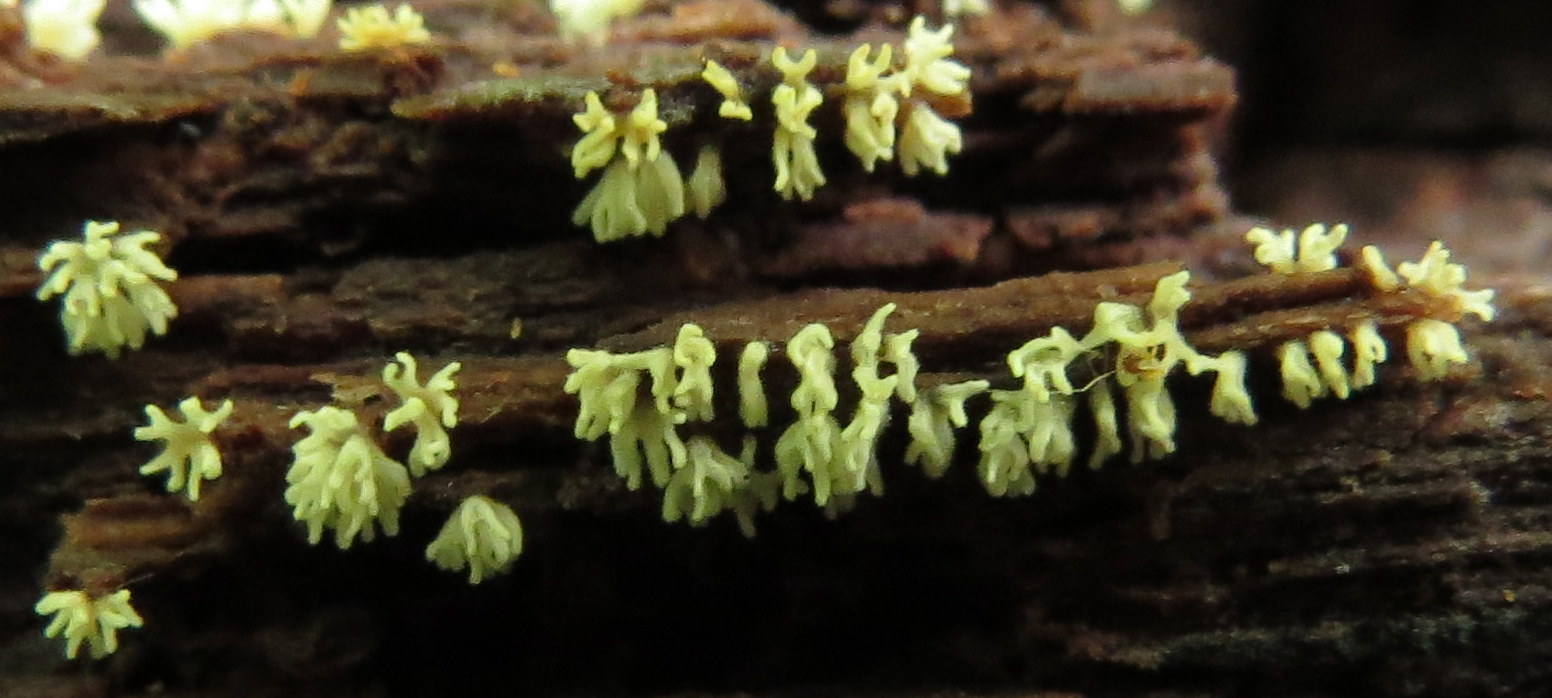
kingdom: Protozoa
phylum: Mycetozoa
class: Protosteliomycetes
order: Ceratiomyxales
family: Ceratiomyxaceae
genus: Ceratiomyxa
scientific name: Ceratiomyxa fruticulosa
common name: Honeycomb coral slime mold
